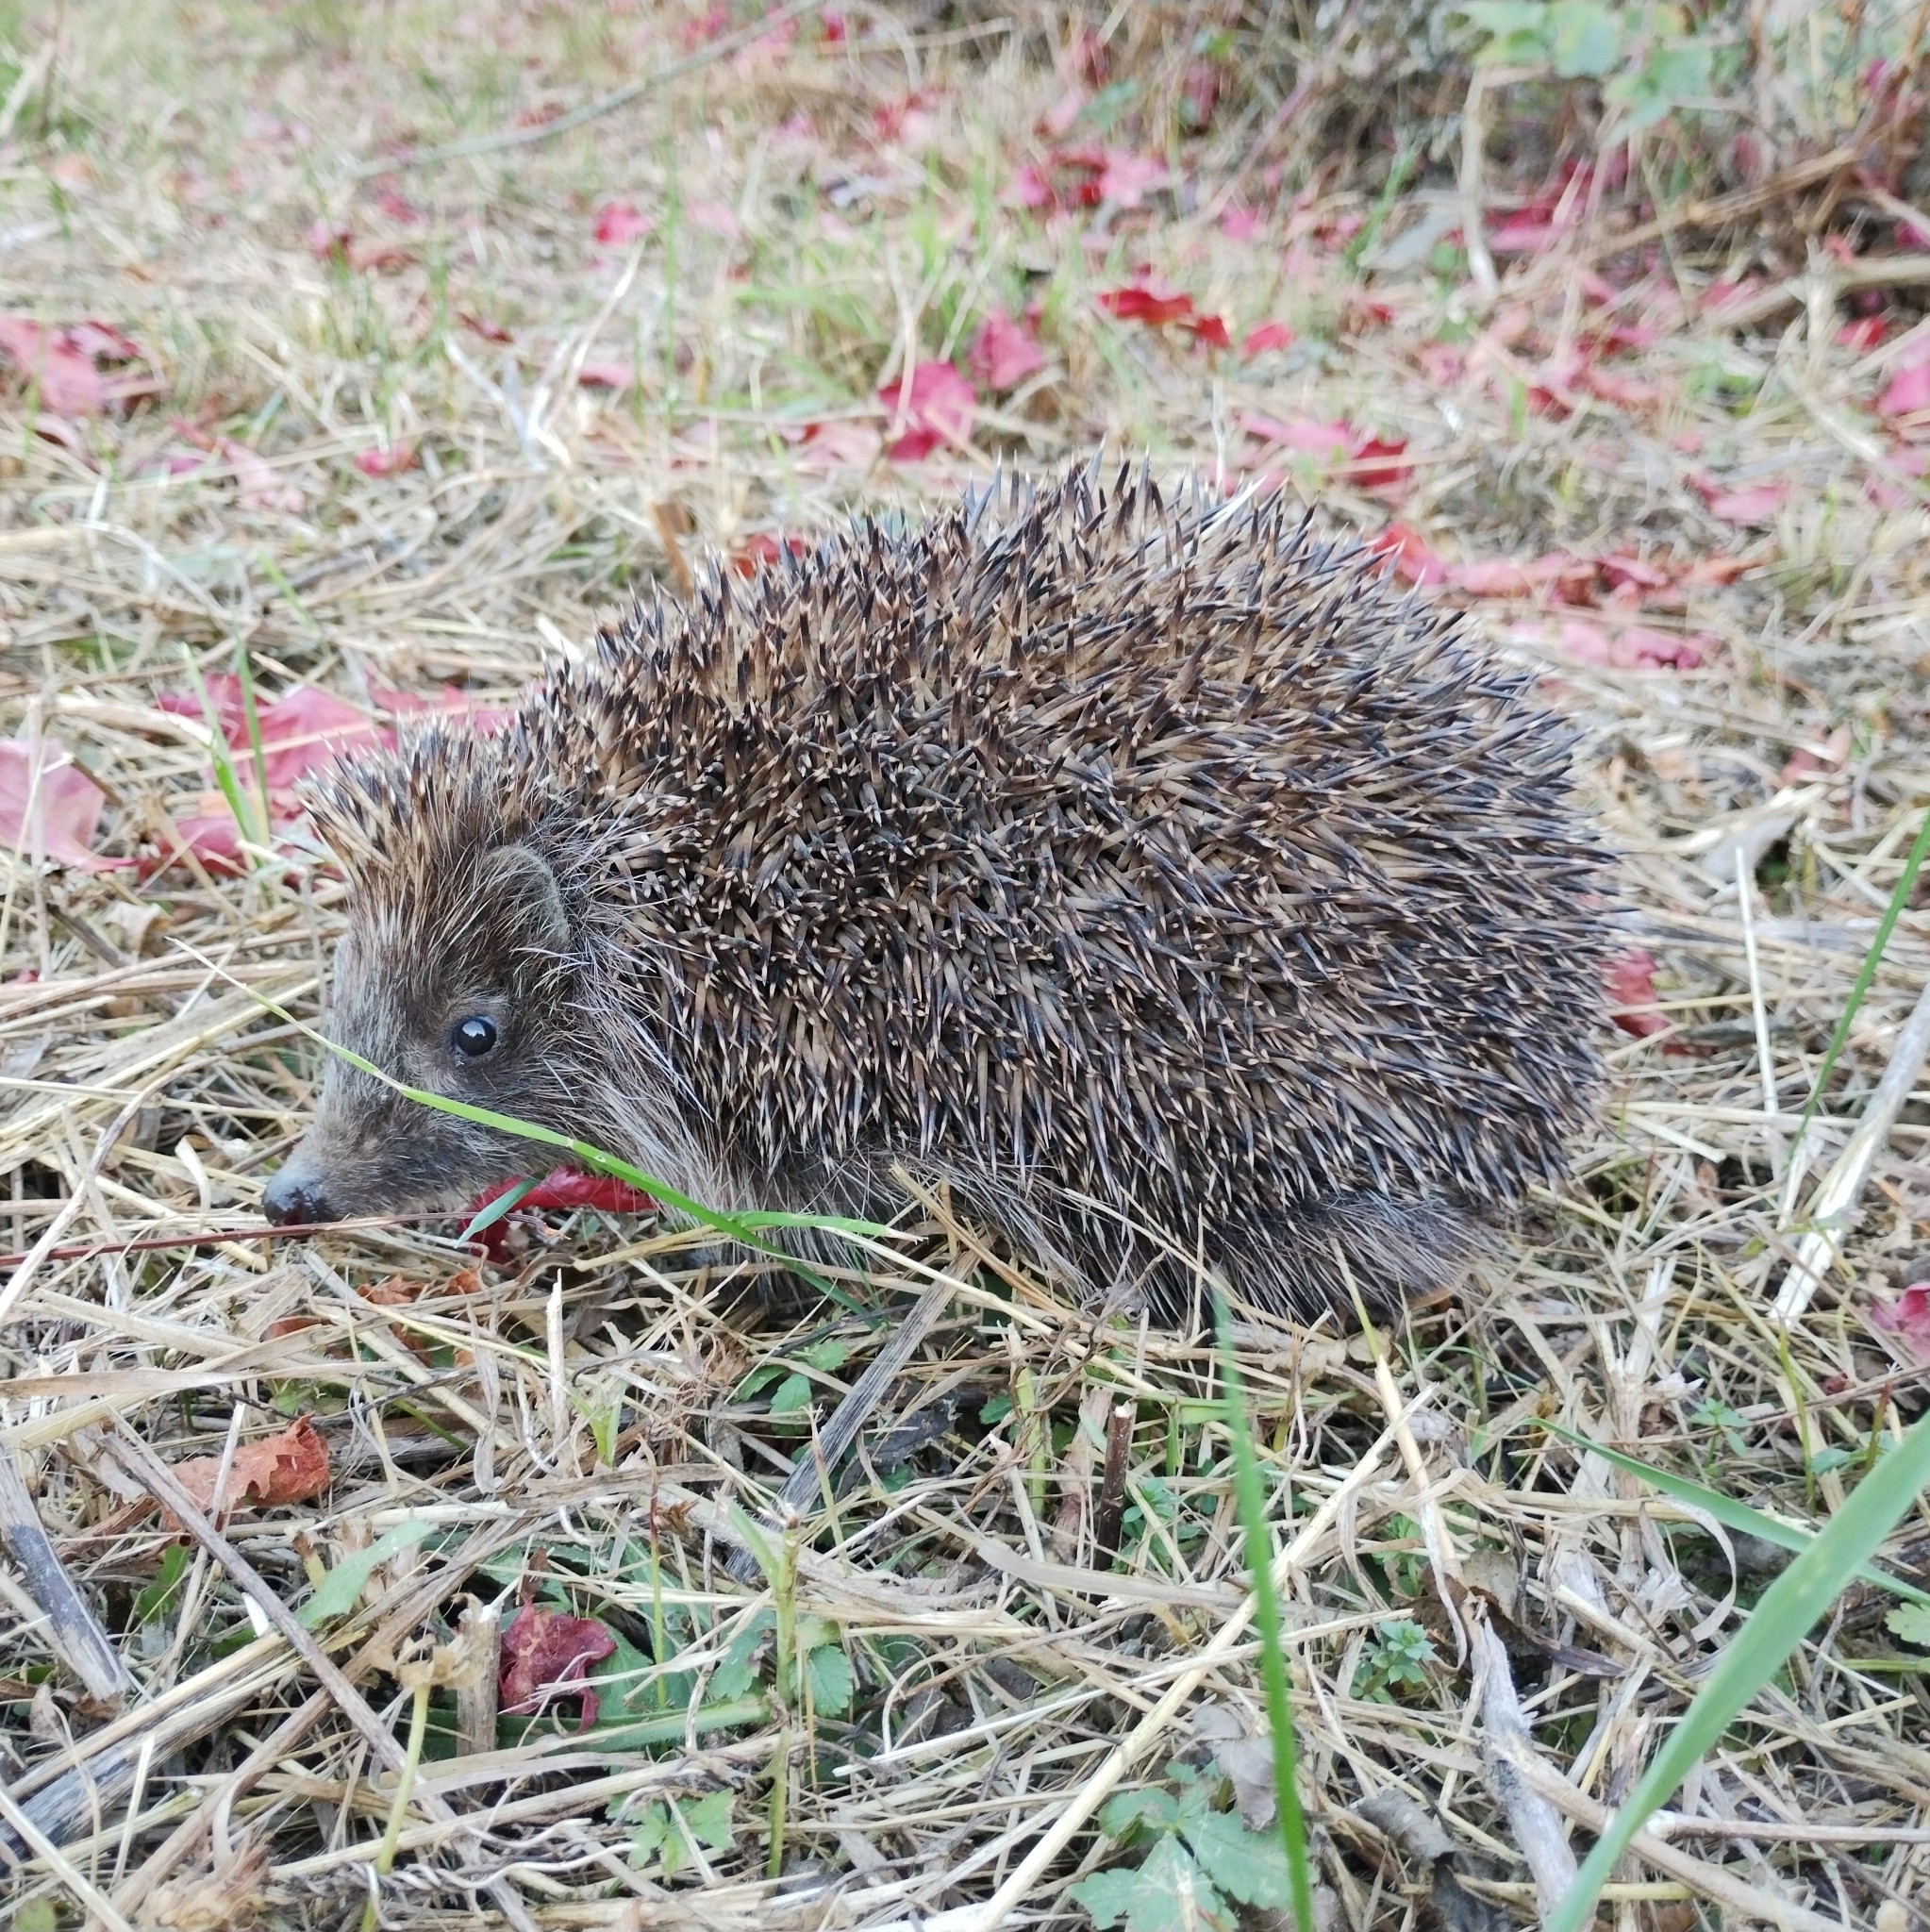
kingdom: Animalia
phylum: Chordata
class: Mammalia
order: Erinaceomorpha
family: Erinaceidae
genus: Erinaceus
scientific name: Erinaceus roumanicus
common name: Northern white-breasted hedgehog
